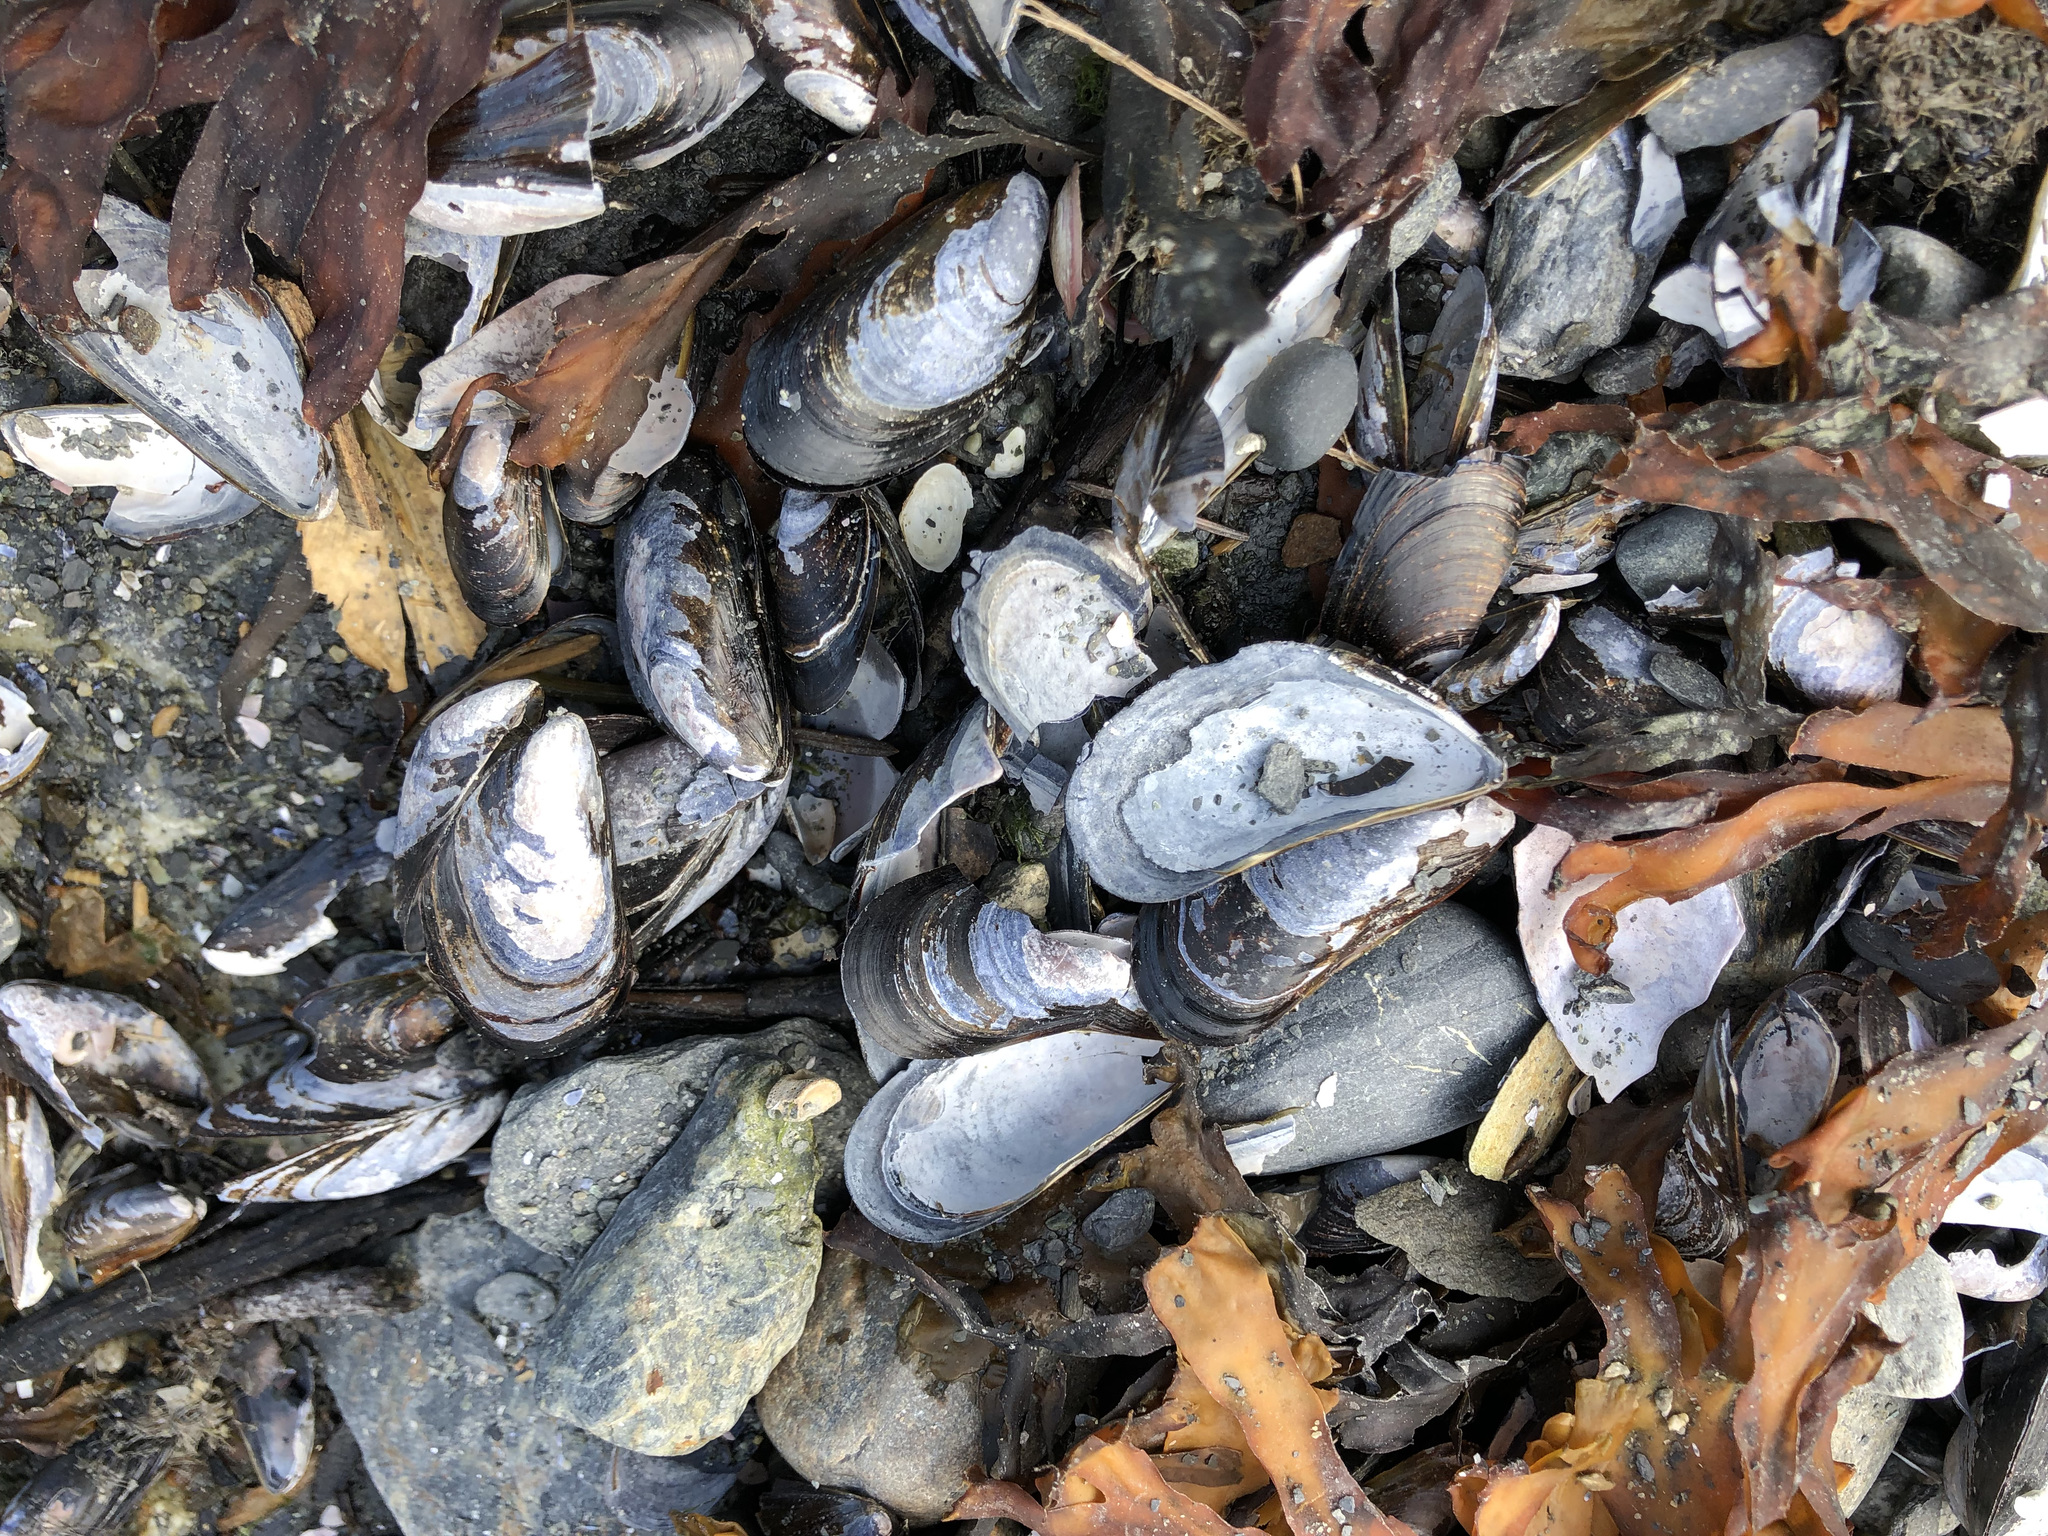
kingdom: Animalia
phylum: Mollusca
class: Bivalvia
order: Mytilida
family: Mytilidae
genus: Mytilus
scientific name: Mytilus trossulus
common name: Northern blue mussel
